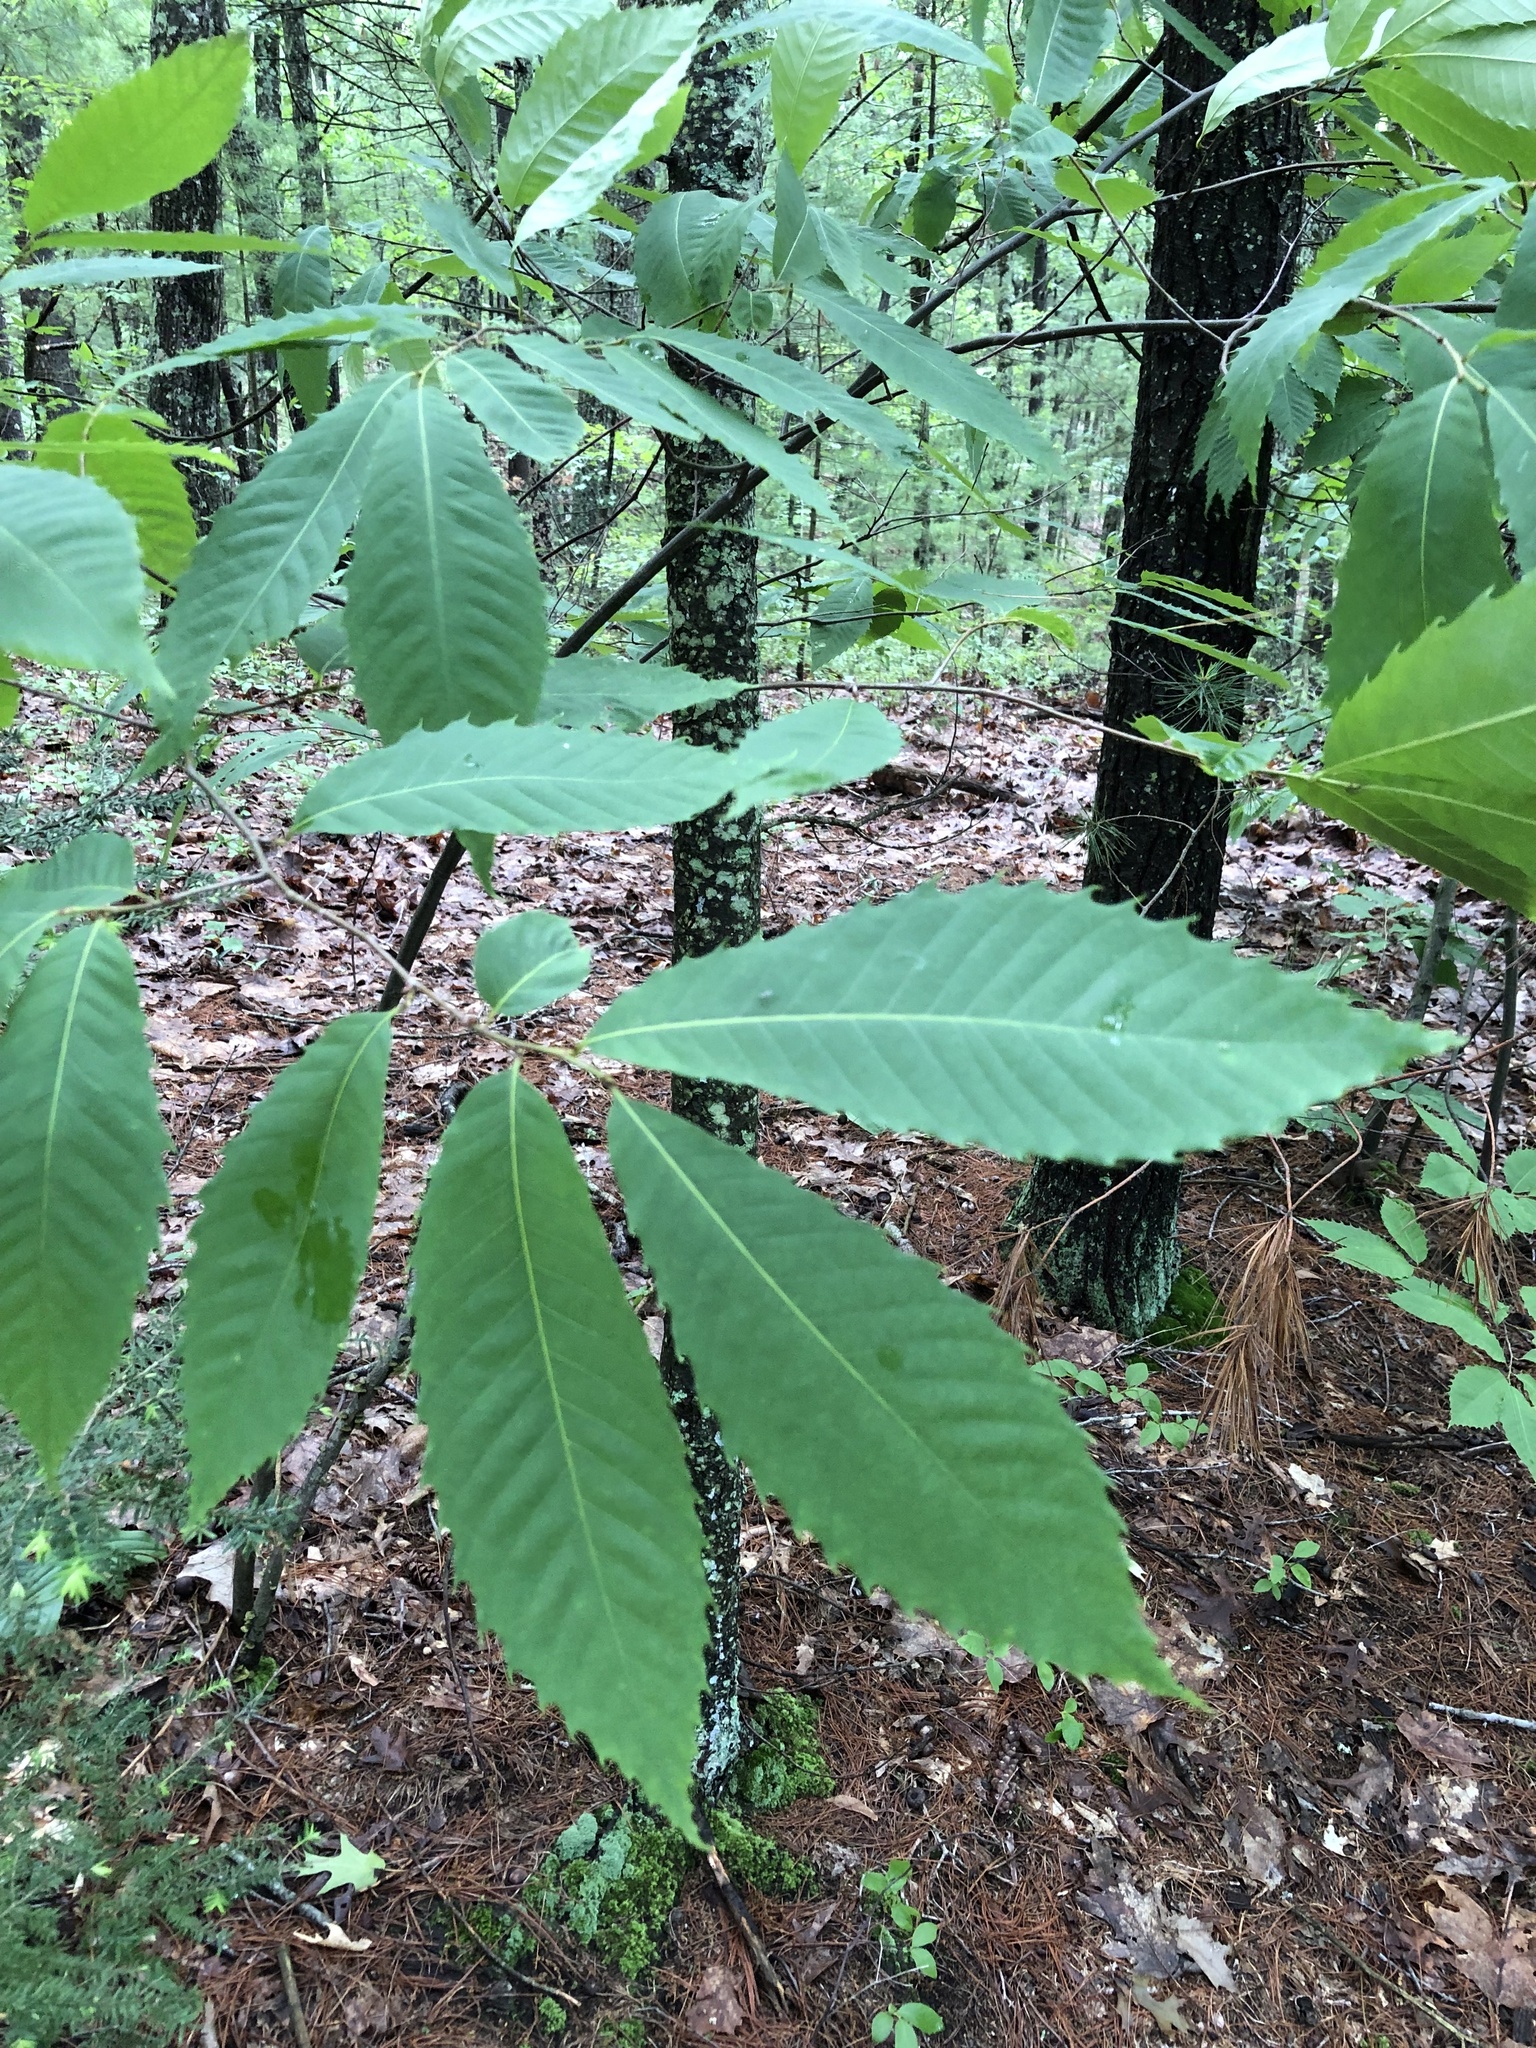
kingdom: Plantae
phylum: Tracheophyta
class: Magnoliopsida
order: Fagales
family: Fagaceae
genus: Castanea
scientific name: Castanea dentata
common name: American chestnut
